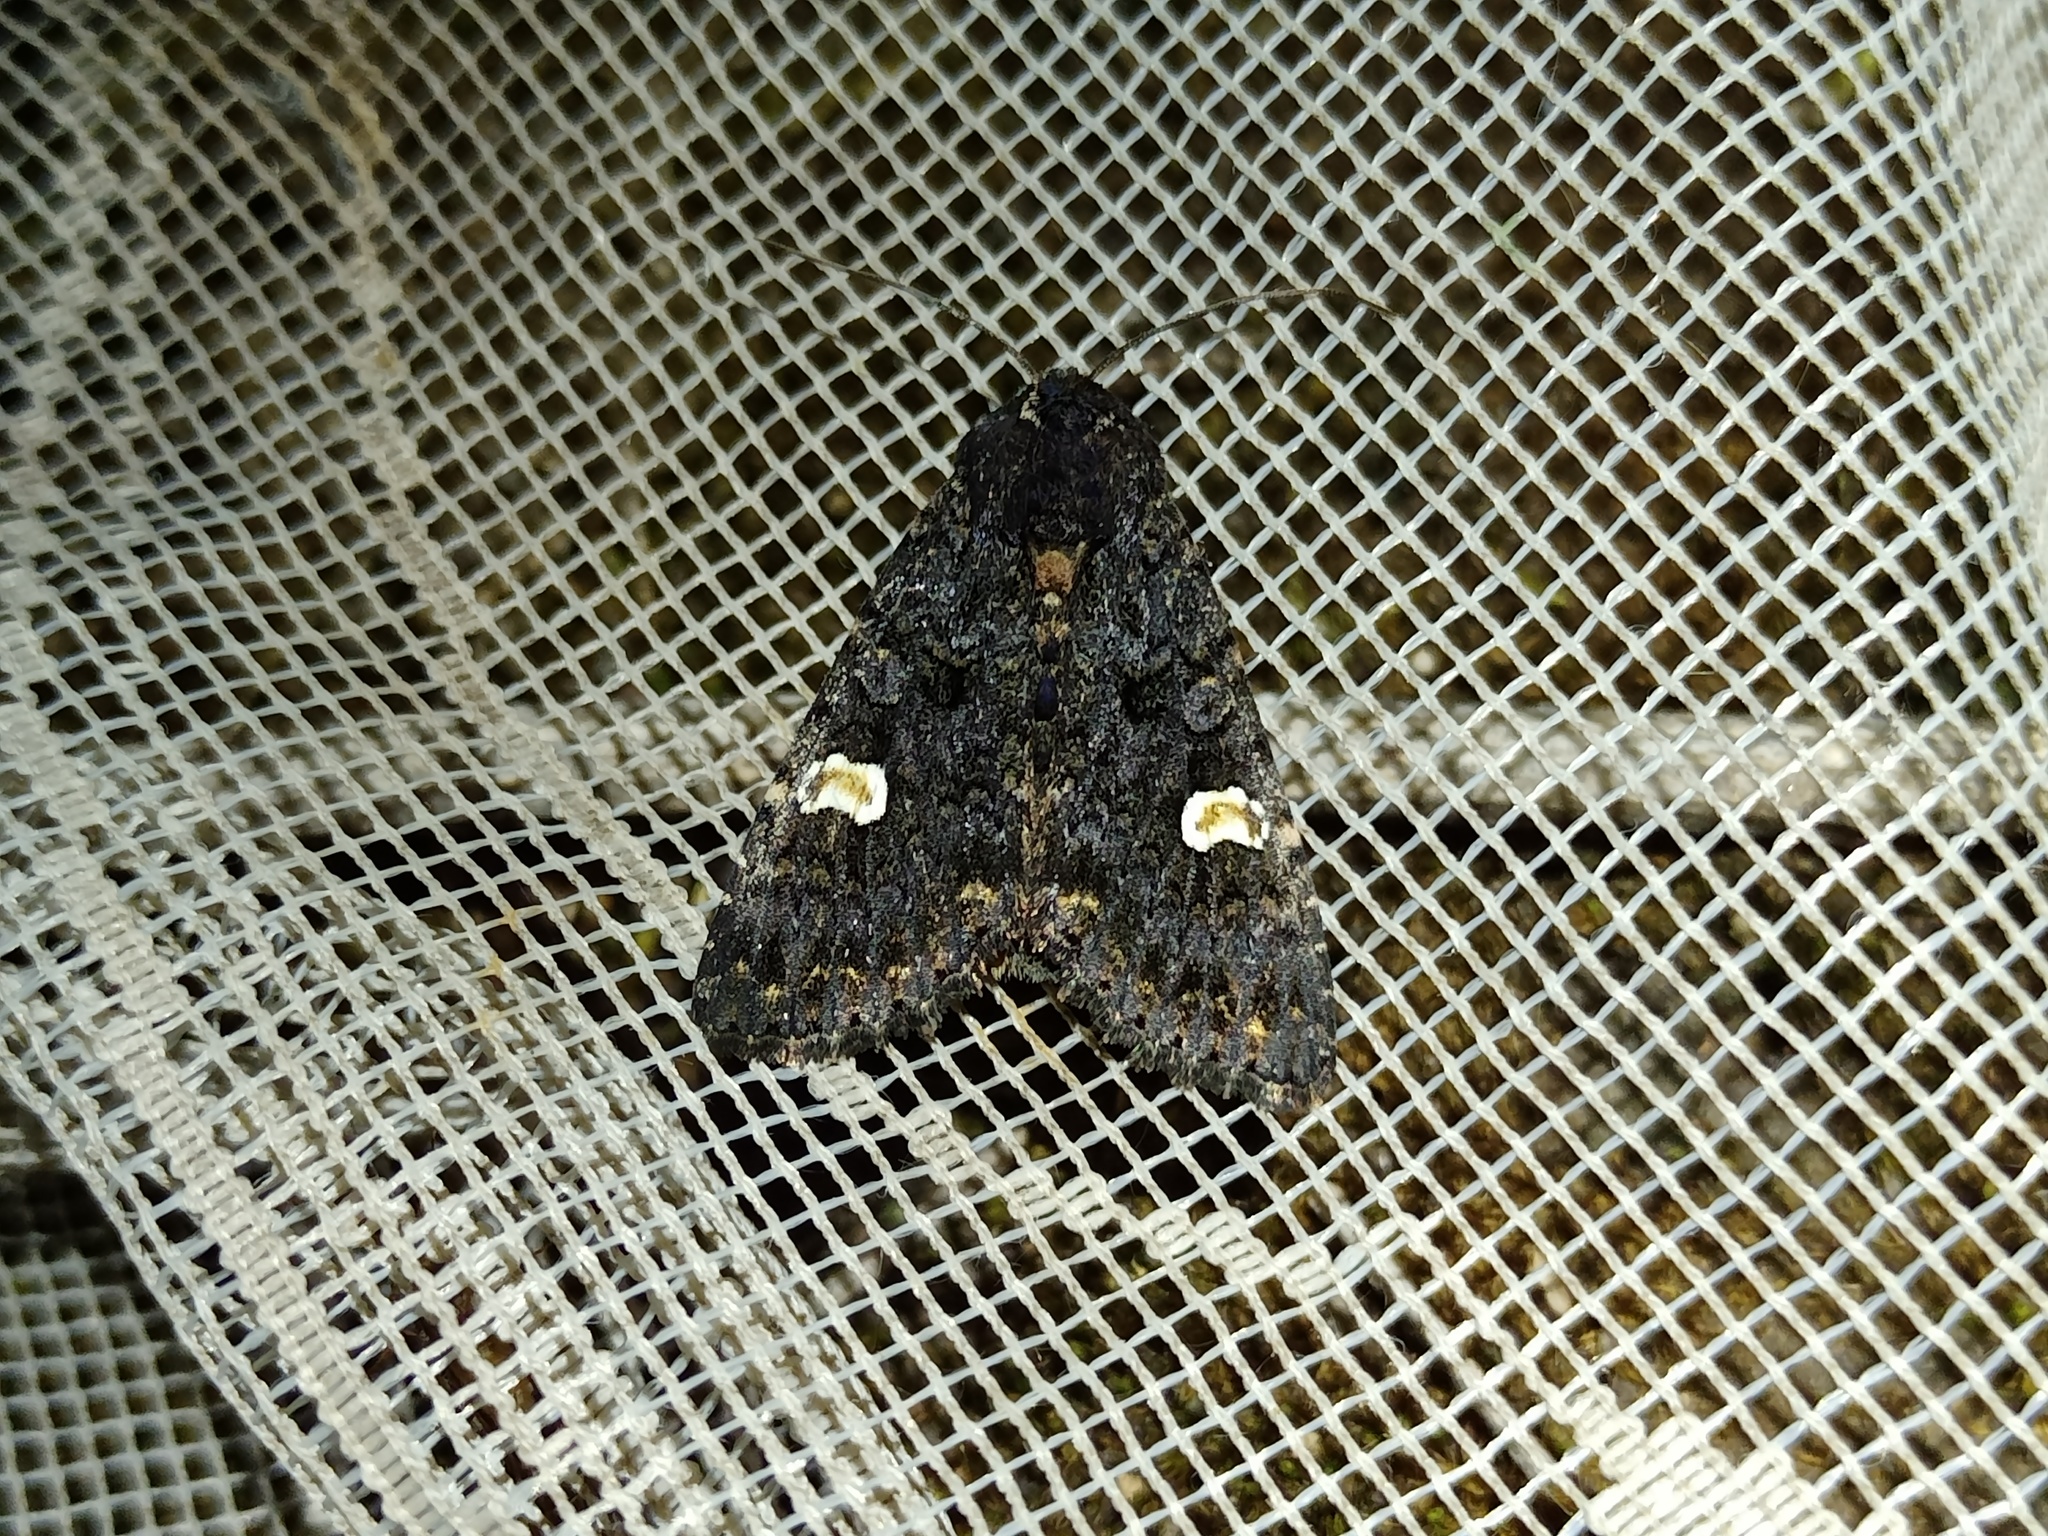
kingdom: Animalia
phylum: Arthropoda
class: Insecta
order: Lepidoptera
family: Noctuidae
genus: Melanchra
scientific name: Melanchra persicariae
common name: Dot moth
